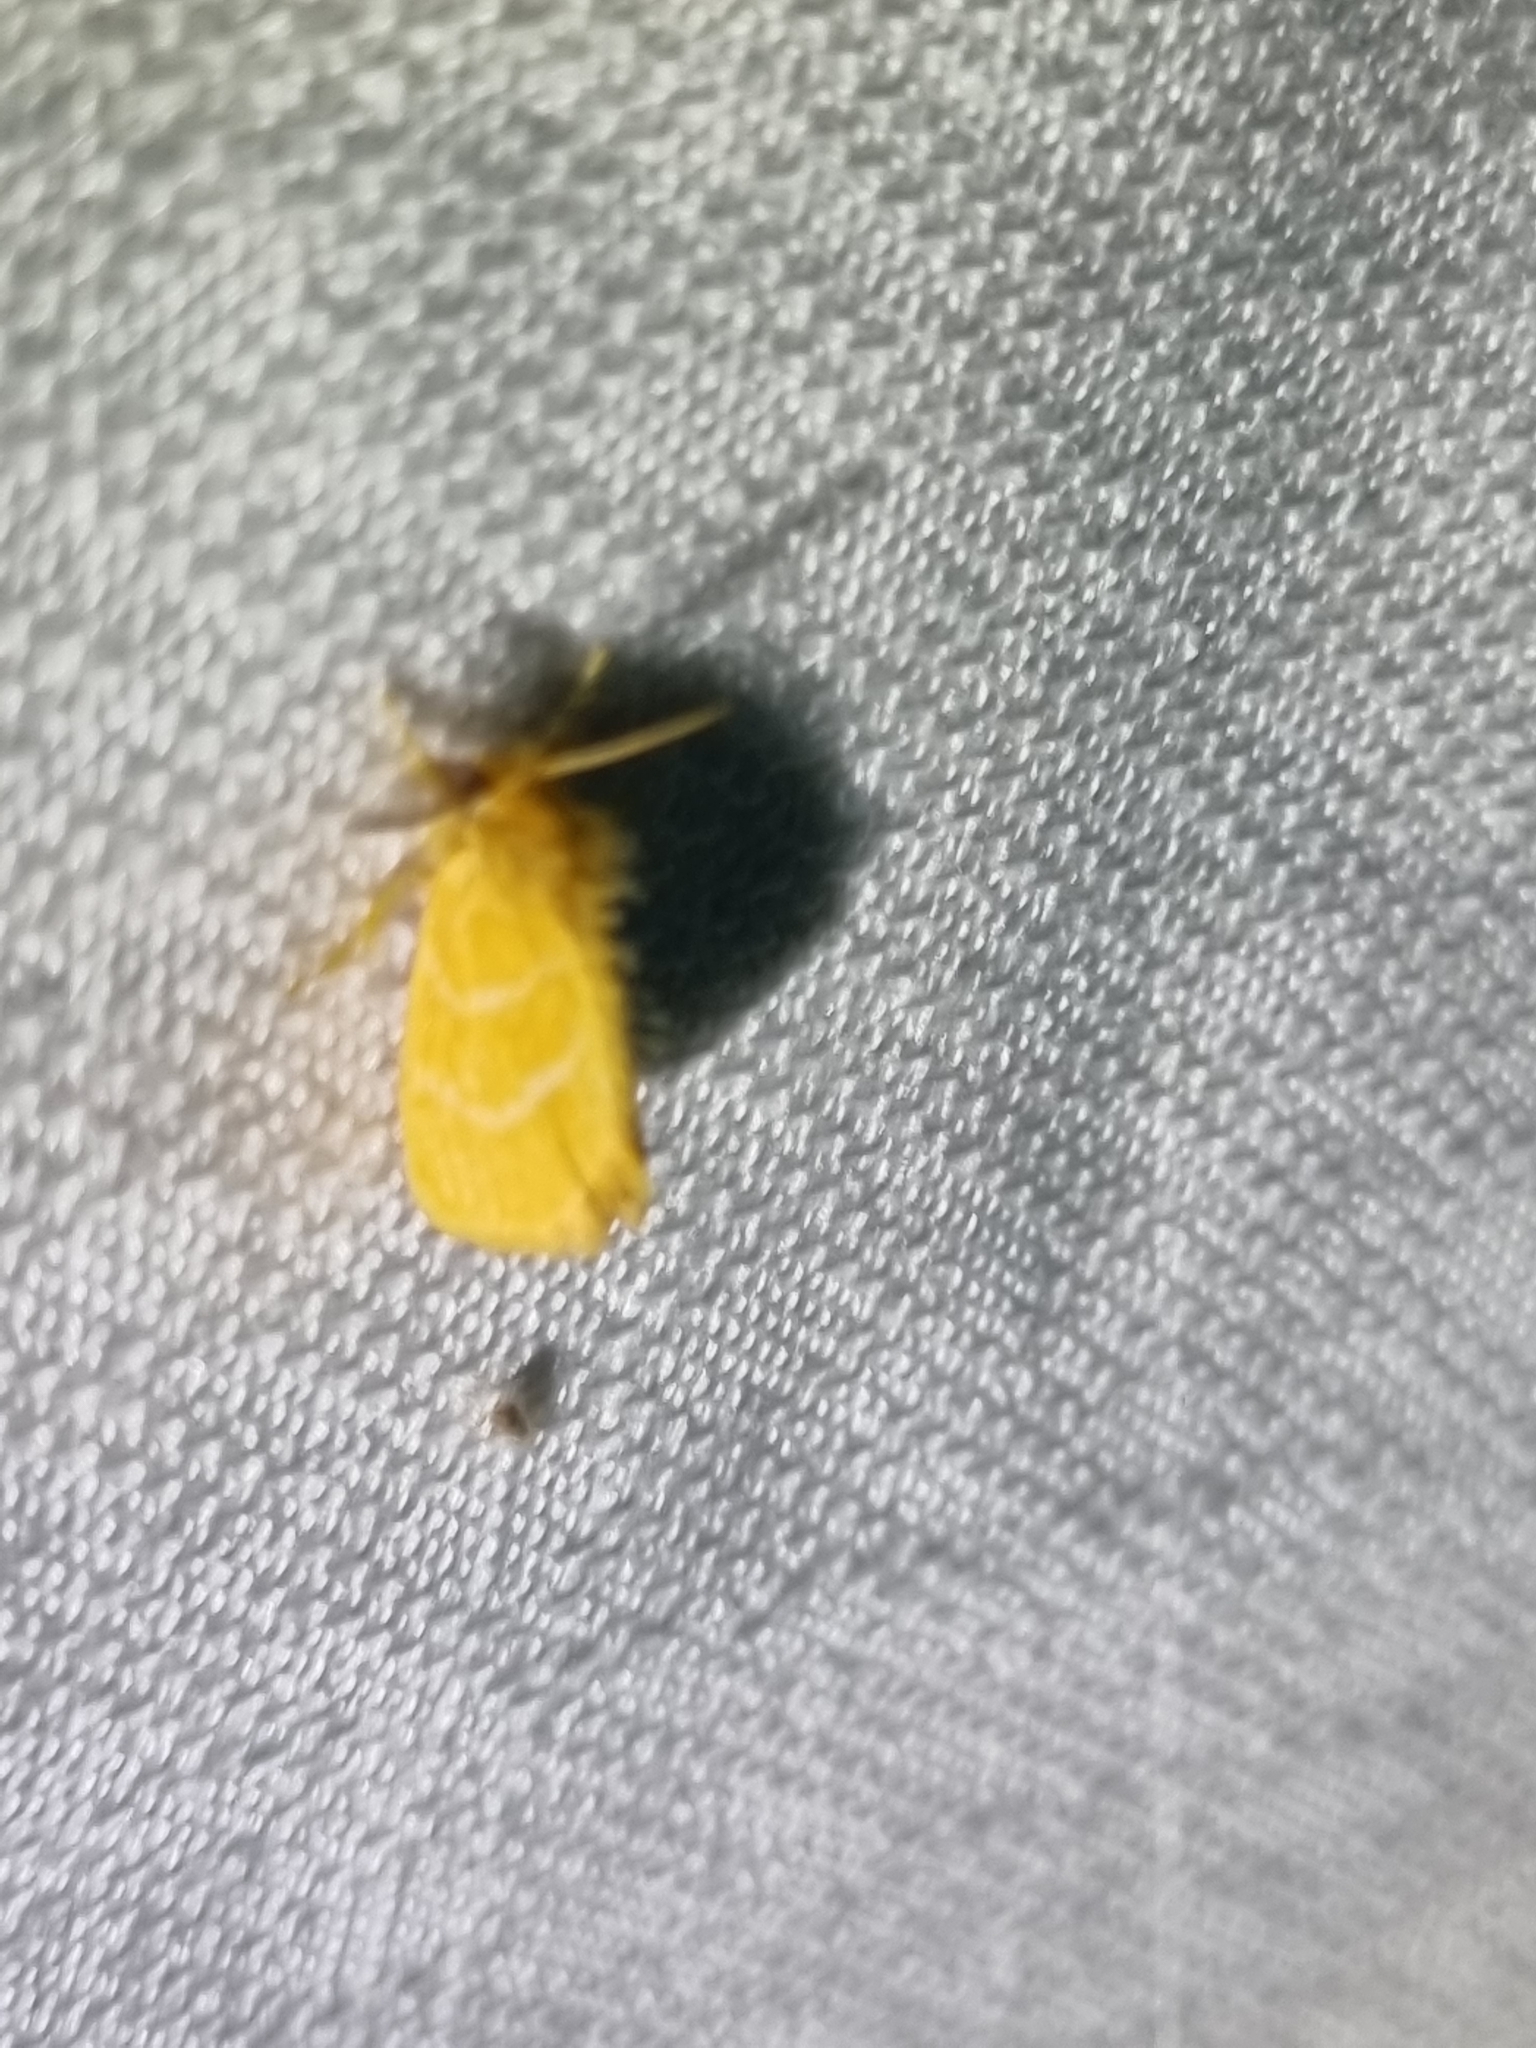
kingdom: Animalia
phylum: Arthropoda
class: Insecta
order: Lepidoptera
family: Erebidae
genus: Euproctis
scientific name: Euproctis lutea
